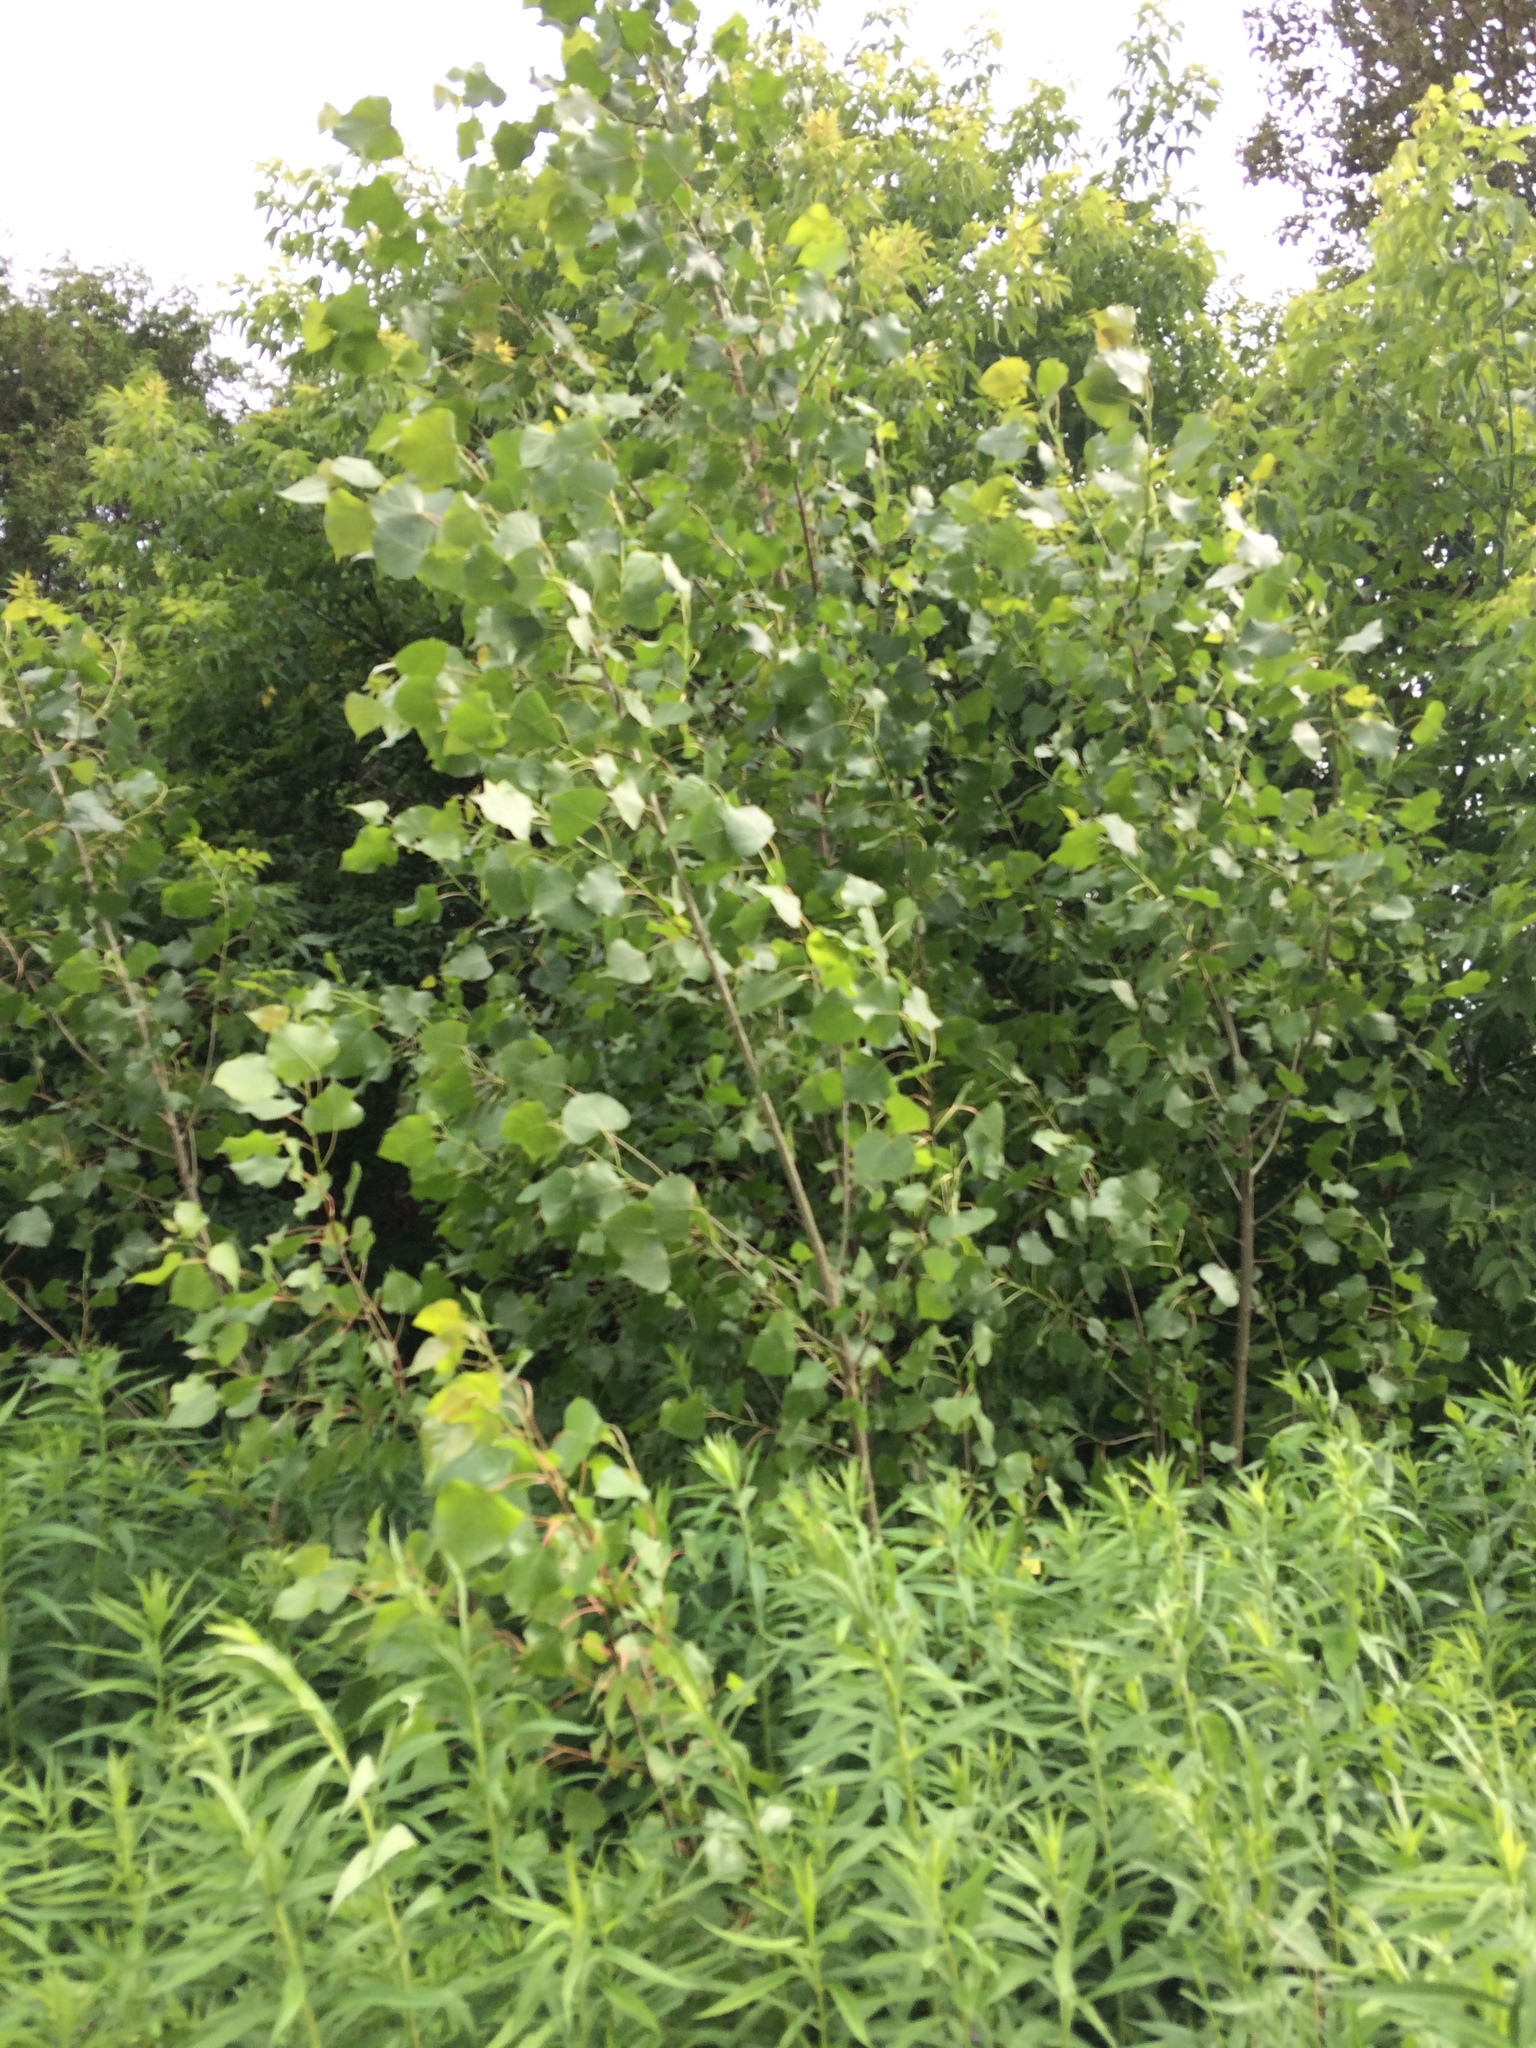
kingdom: Plantae
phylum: Tracheophyta
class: Magnoliopsida
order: Malpighiales
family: Salicaceae
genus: Populus
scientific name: Populus deltoides
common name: Eastern cottonwood
